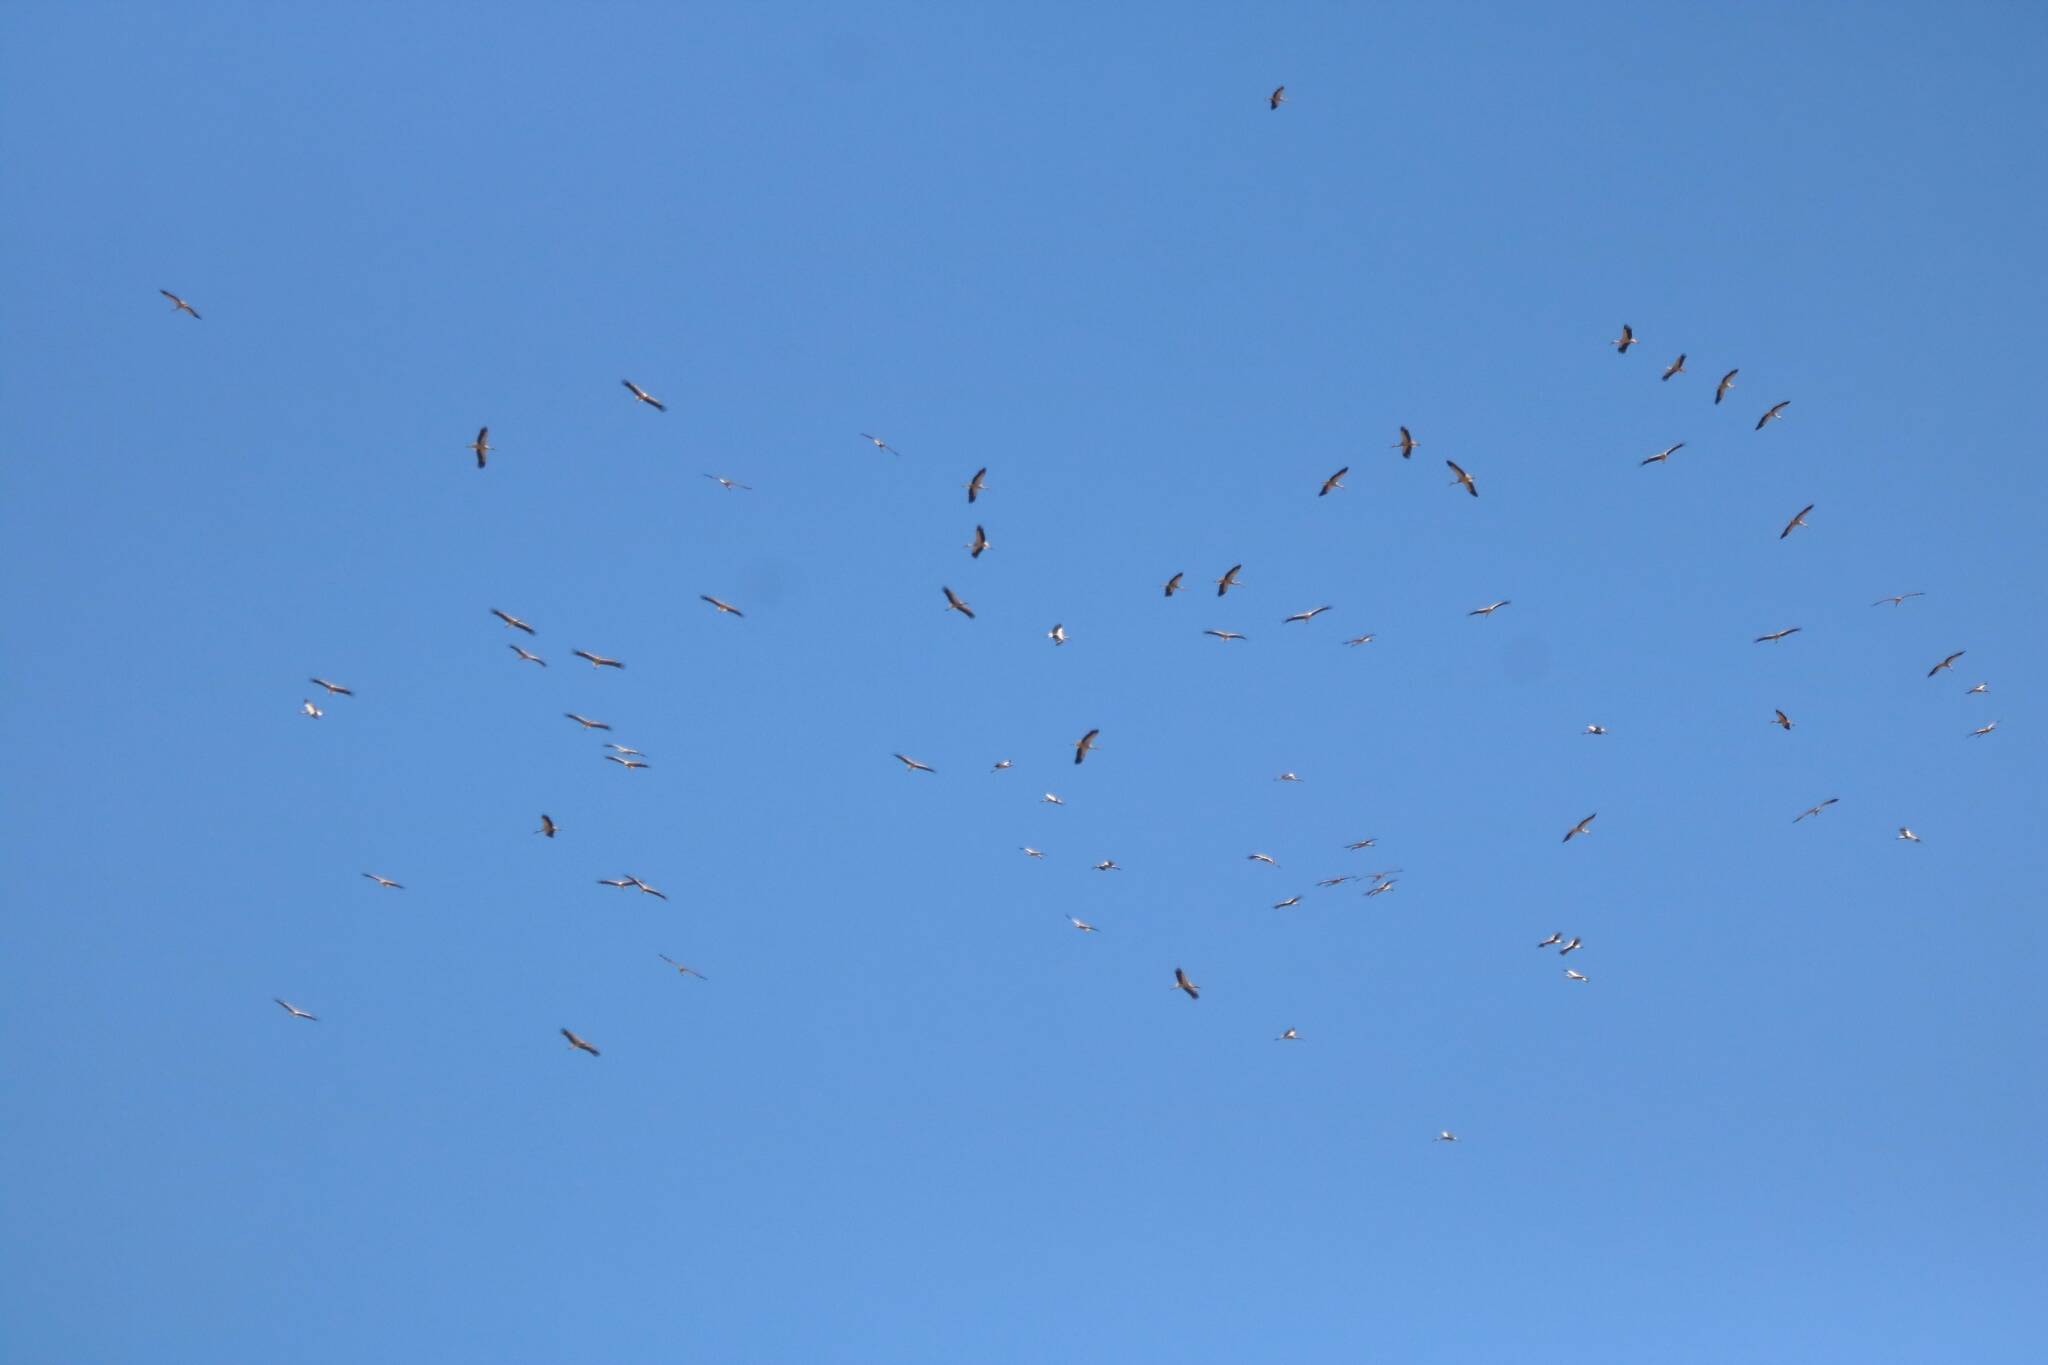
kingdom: Animalia
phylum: Chordata
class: Aves
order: Ciconiiformes
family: Ciconiidae
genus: Ciconia
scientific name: Ciconia ciconia
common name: White stork
